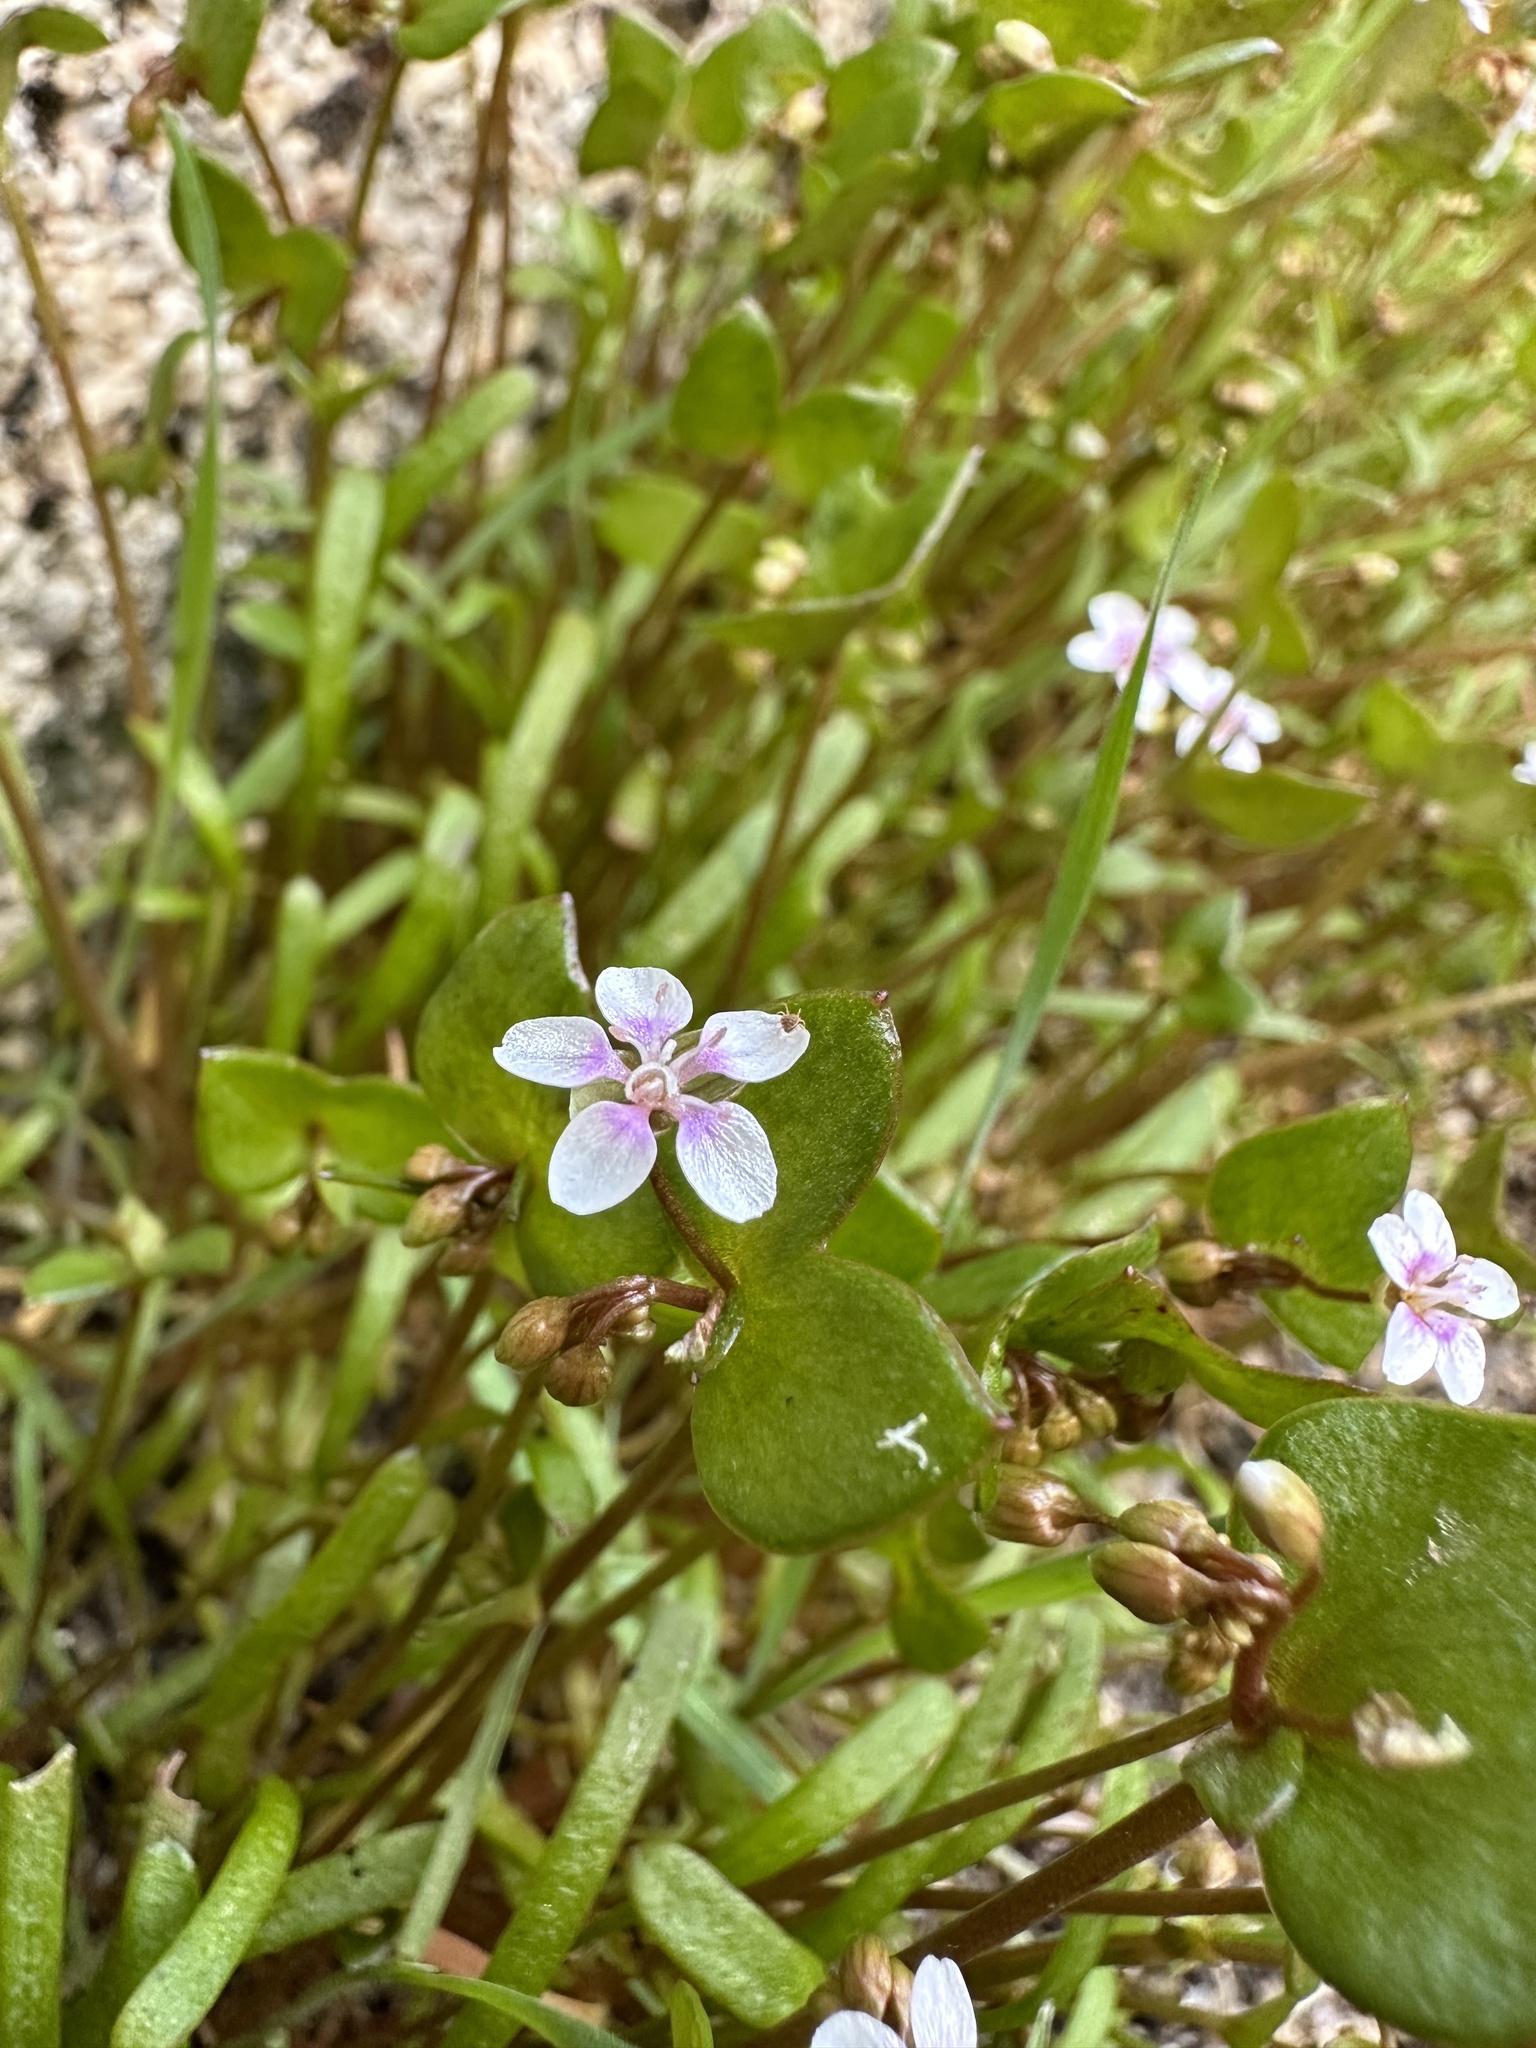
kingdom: Plantae
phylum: Tracheophyta
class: Magnoliopsida
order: Caryophyllales
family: Montiaceae
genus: Claytonia
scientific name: Claytonia parviflora
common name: Indian-lettuce
